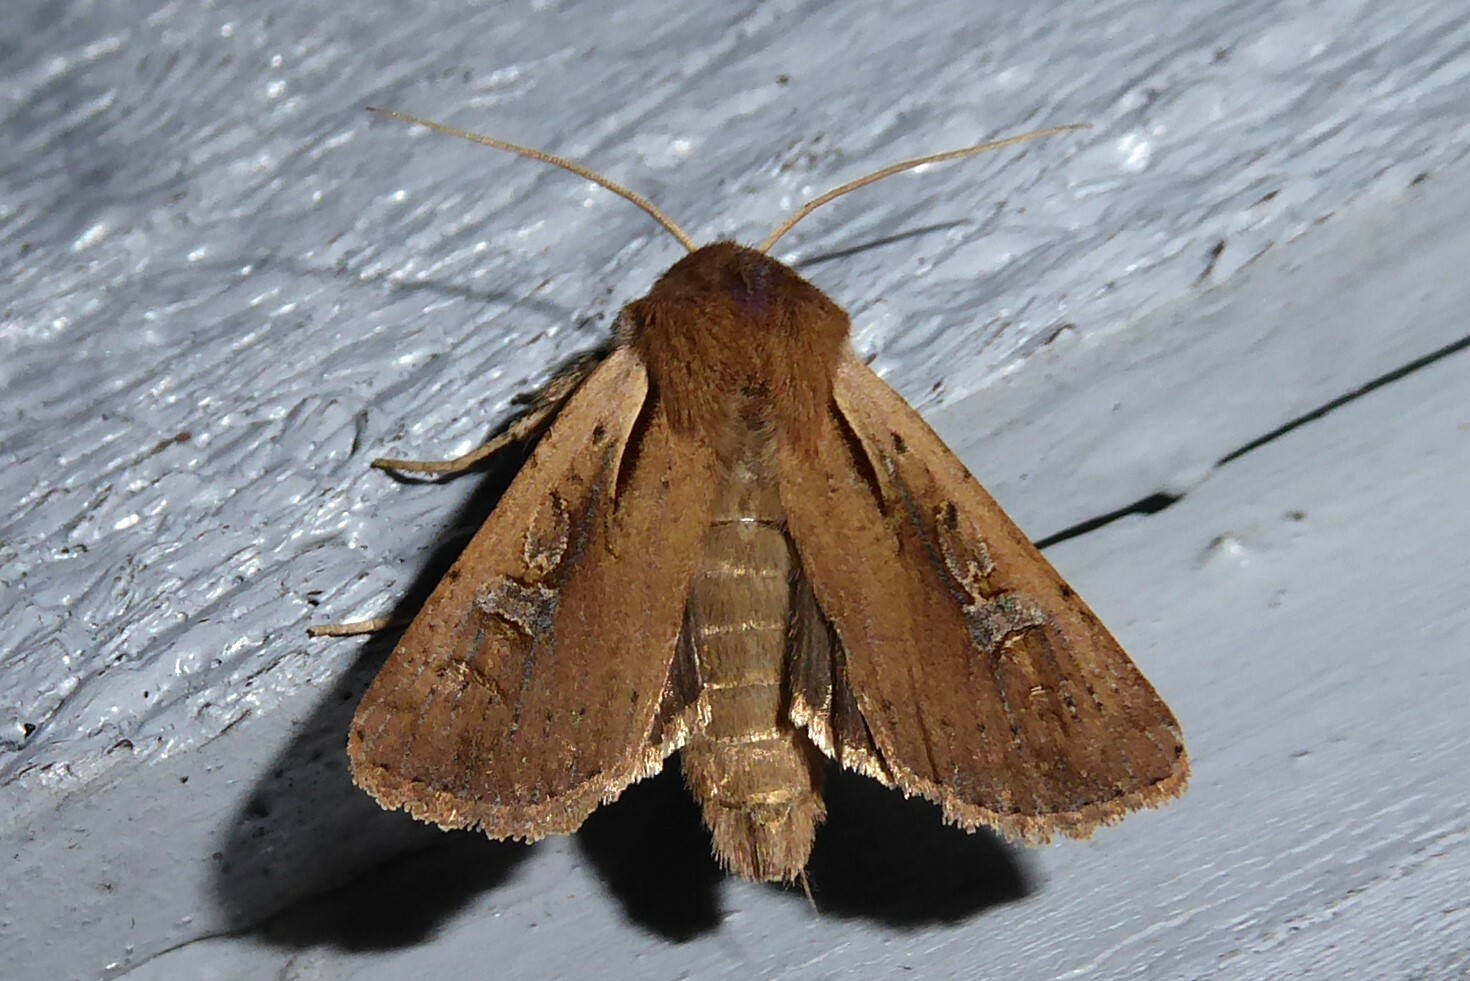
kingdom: Animalia
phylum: Arthropoda
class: Insecta
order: Lepidoptera
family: Noctuidae
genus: Ichneutica
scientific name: Ichneutica atristriga
